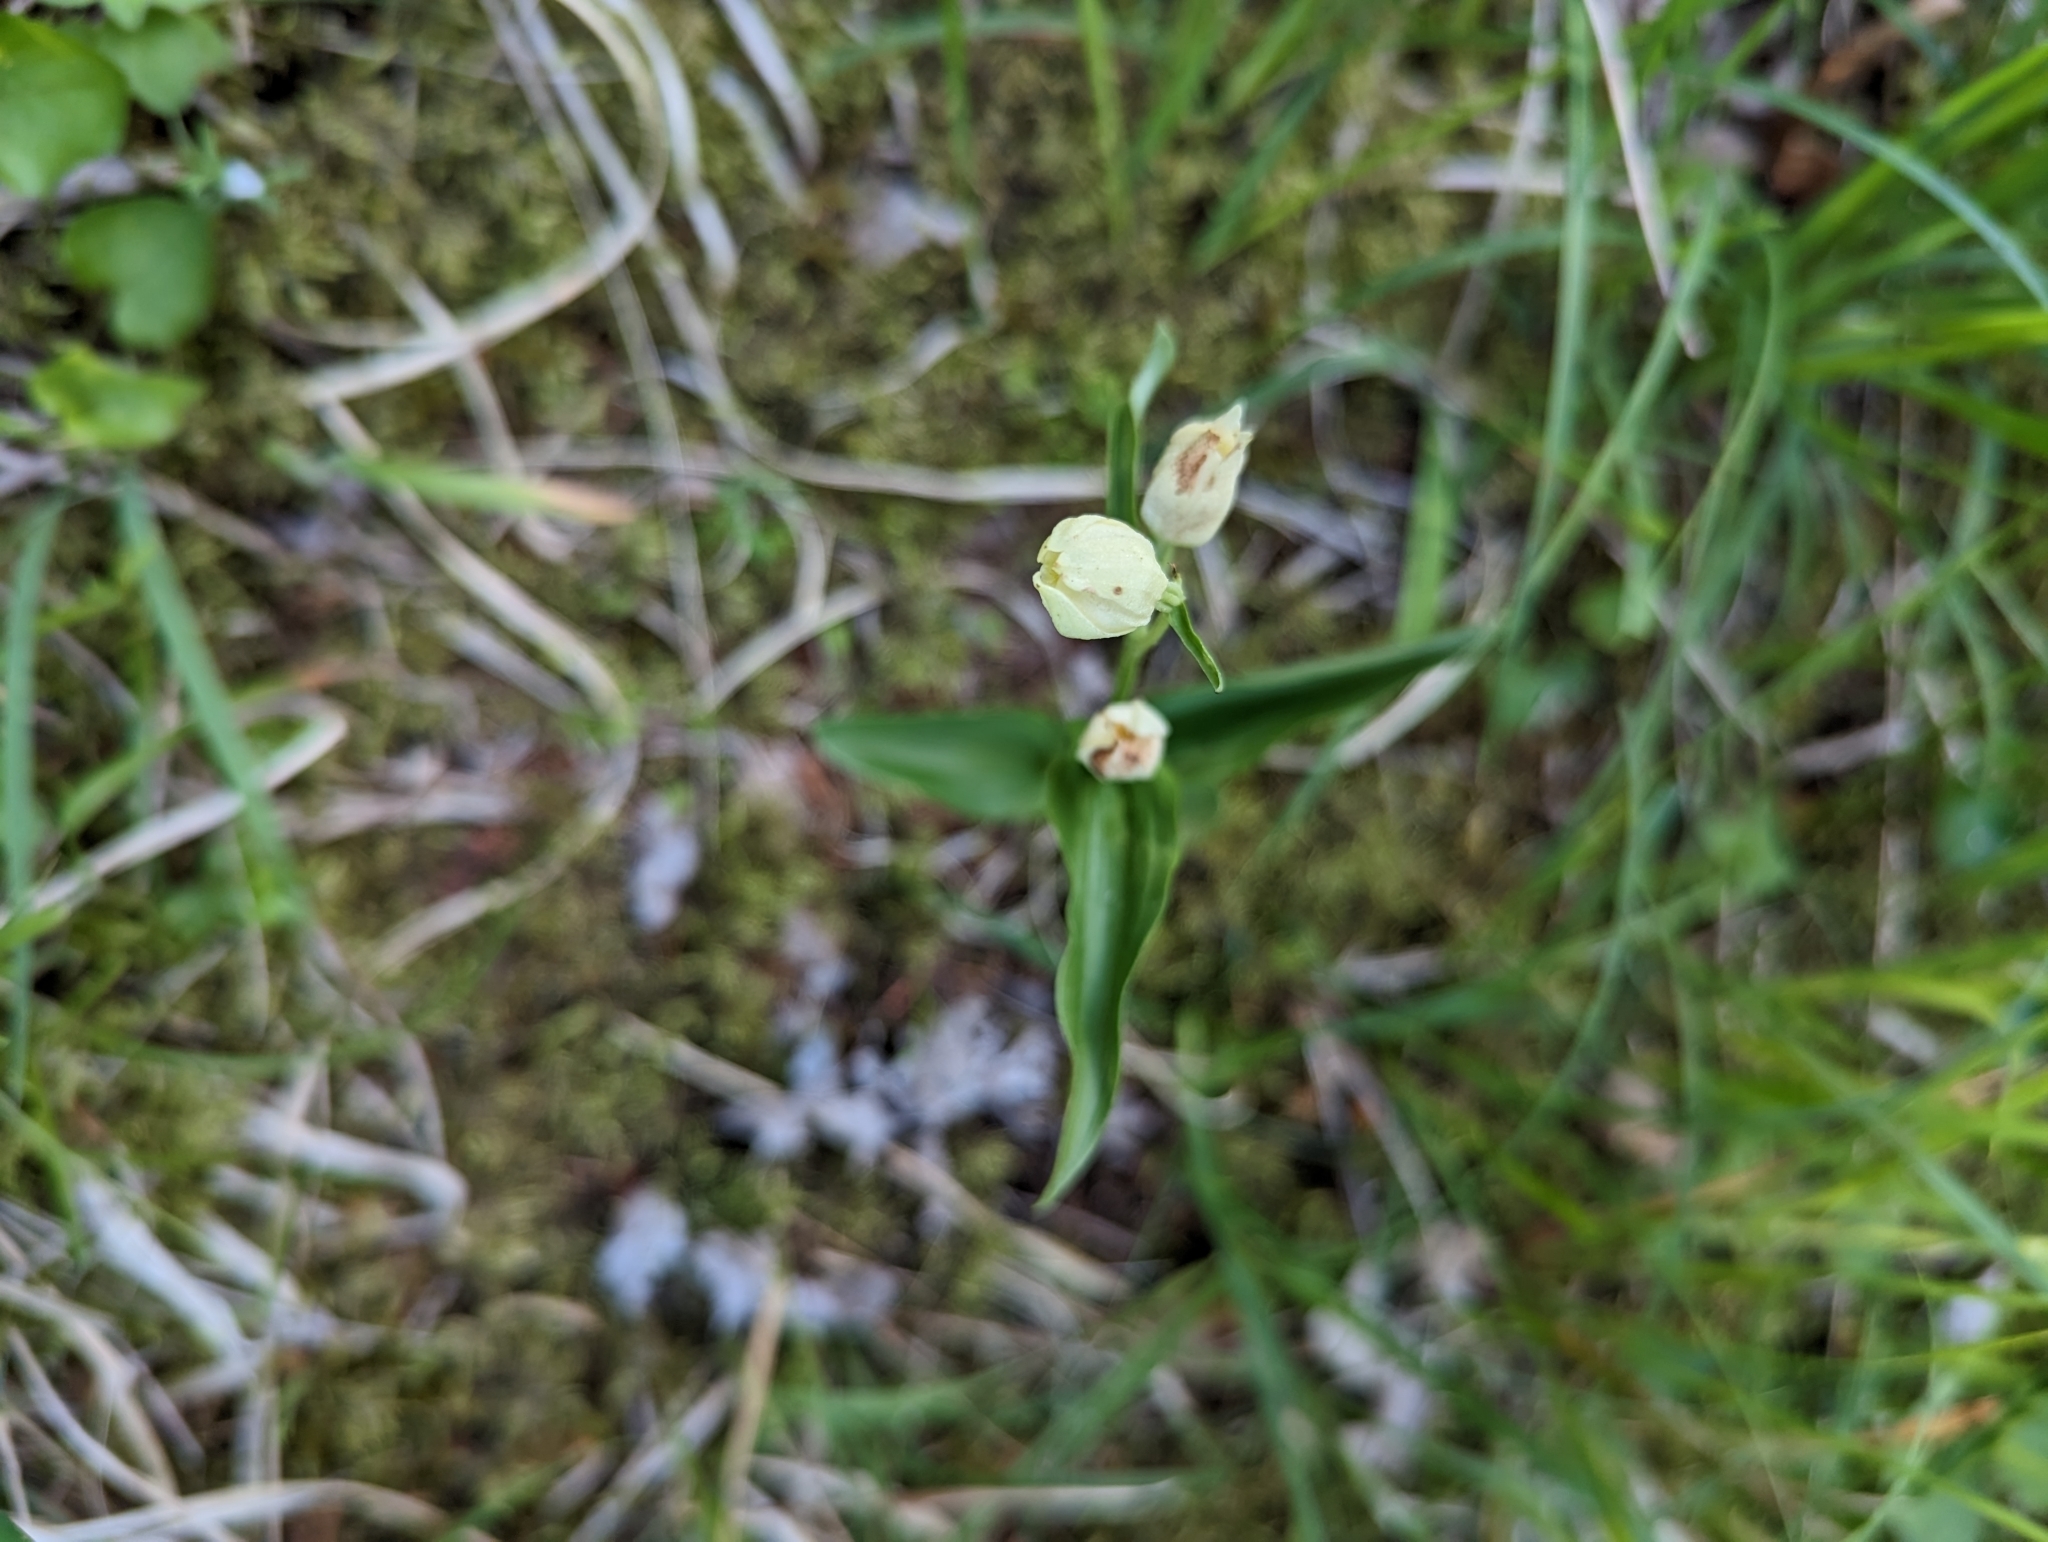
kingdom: Plantae
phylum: Tracheophyta
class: Liliopsida
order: Asparagales
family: Orchidaceae
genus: Cephalanthera
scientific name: Cephalanthera damasonium
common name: White helleborine
